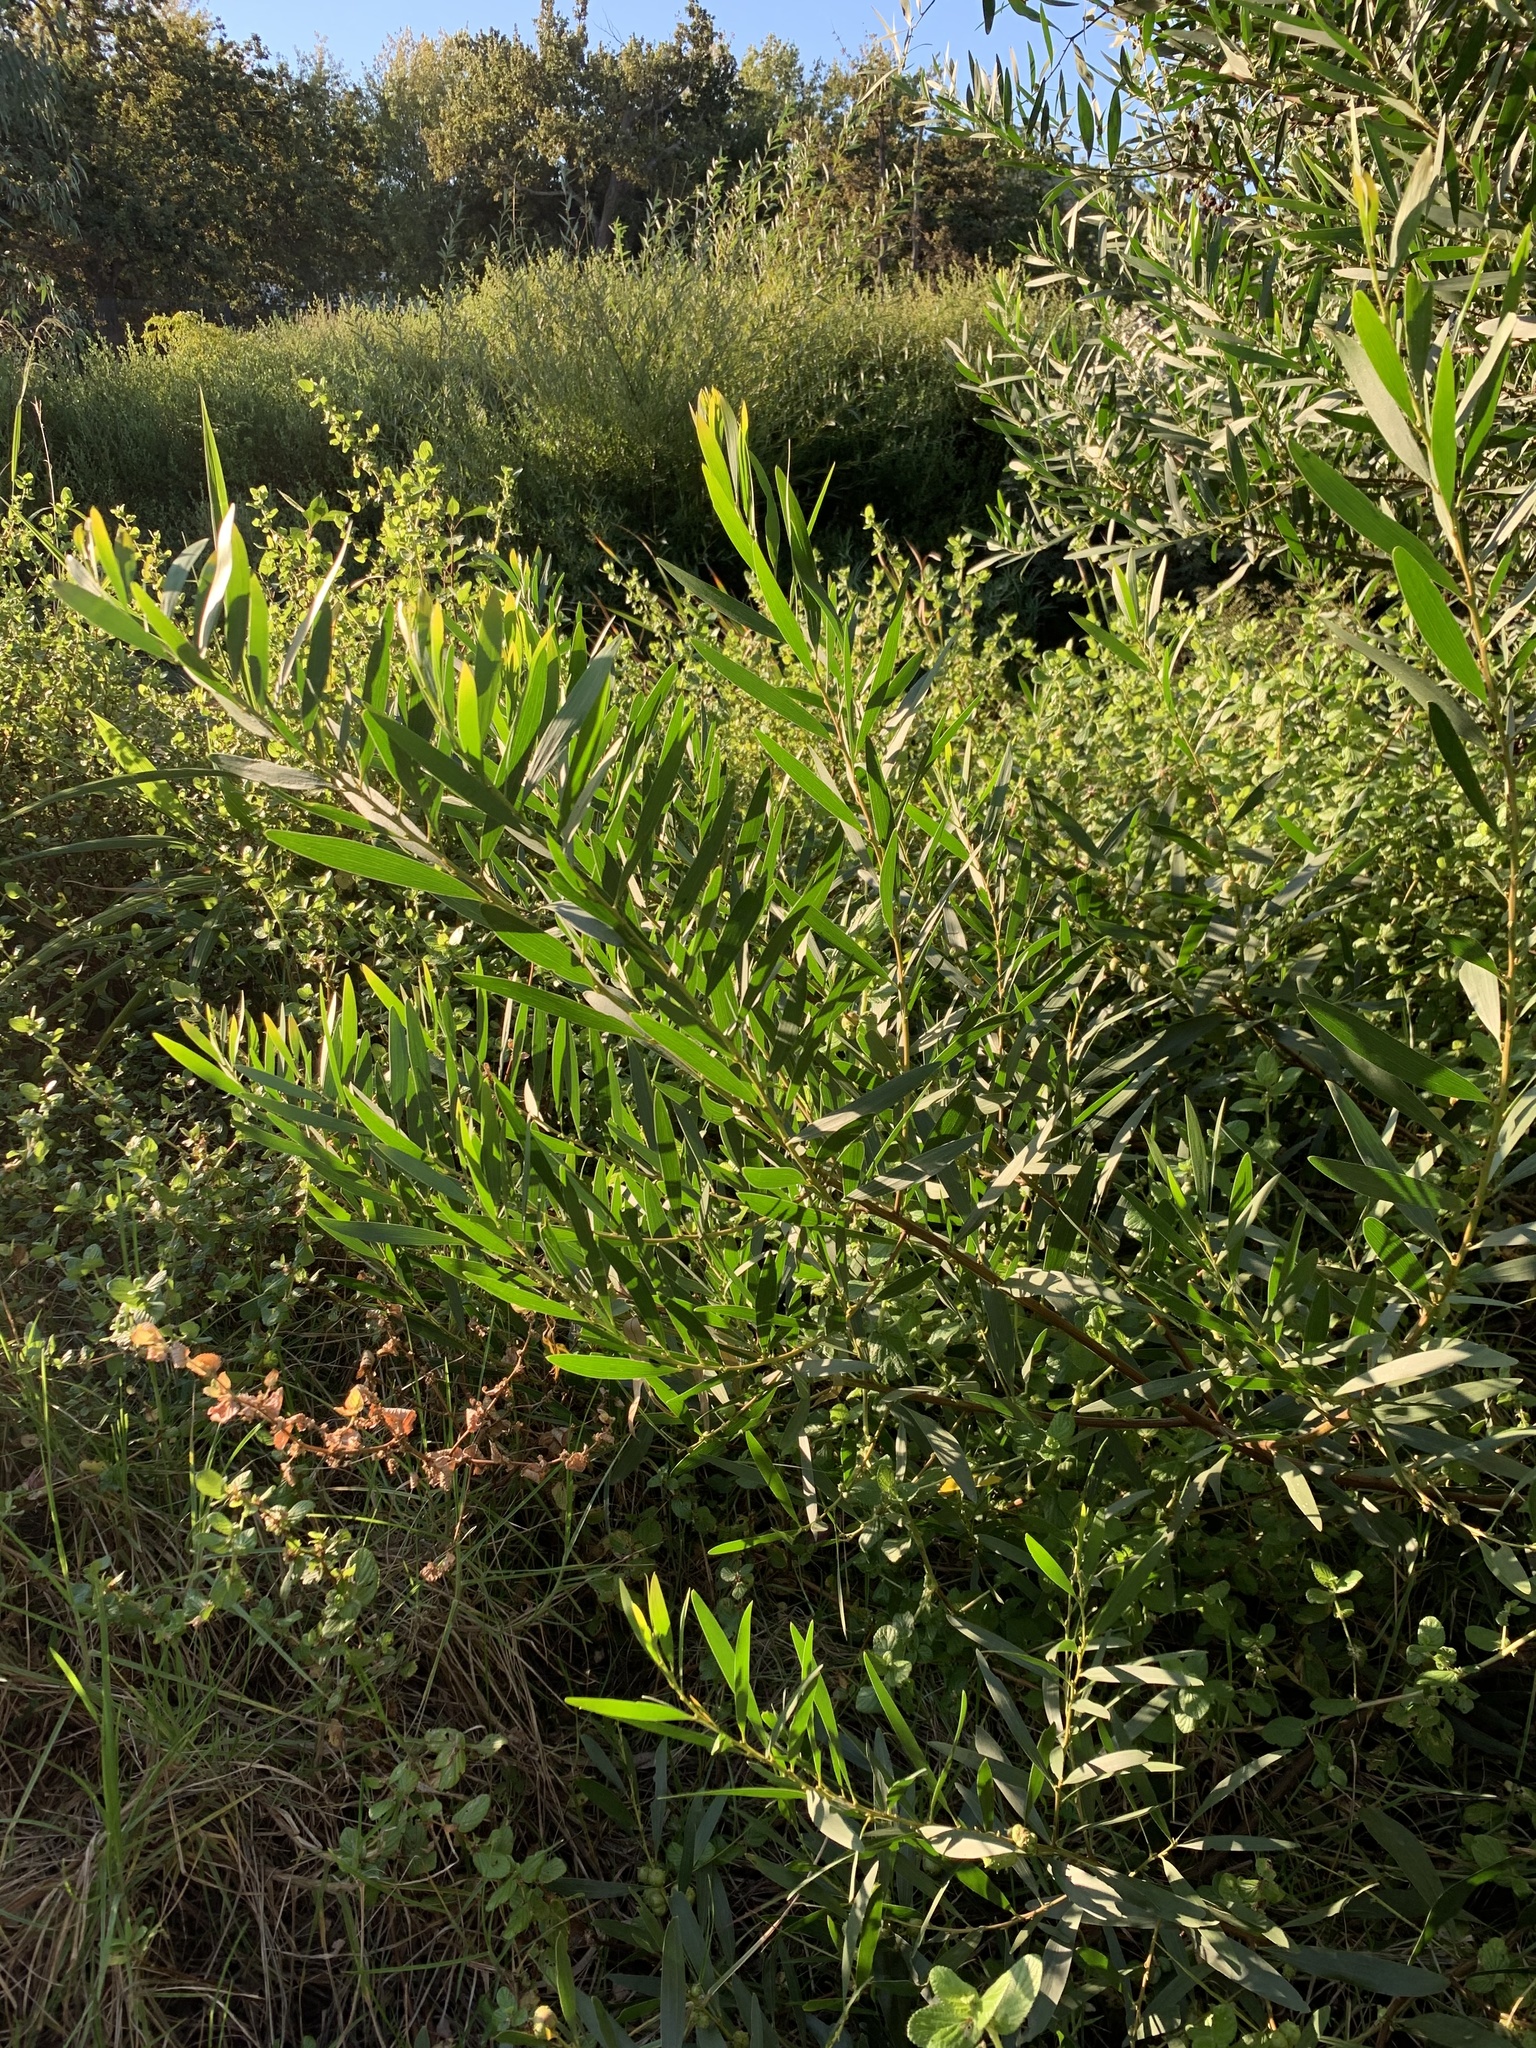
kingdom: Plantae
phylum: Tracheophyta
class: Magnoliopsida
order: Fabales
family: Fabaceae
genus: Acacia
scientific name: Acacia longifolia
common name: Sydney golden wattle
